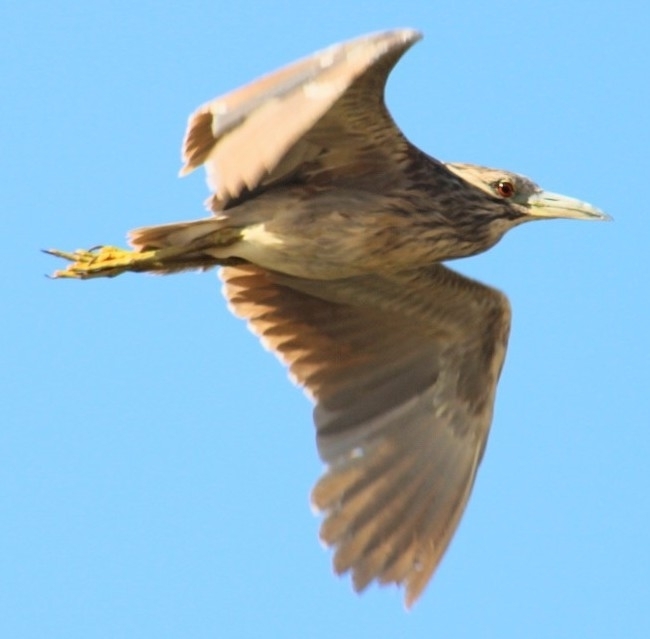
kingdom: Animalia
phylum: Chordata
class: Aves
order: Pelecaniformes
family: Ardeidae
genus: Nycticorax
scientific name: Nycticorax nycticorax
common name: Black-crowned night heron
